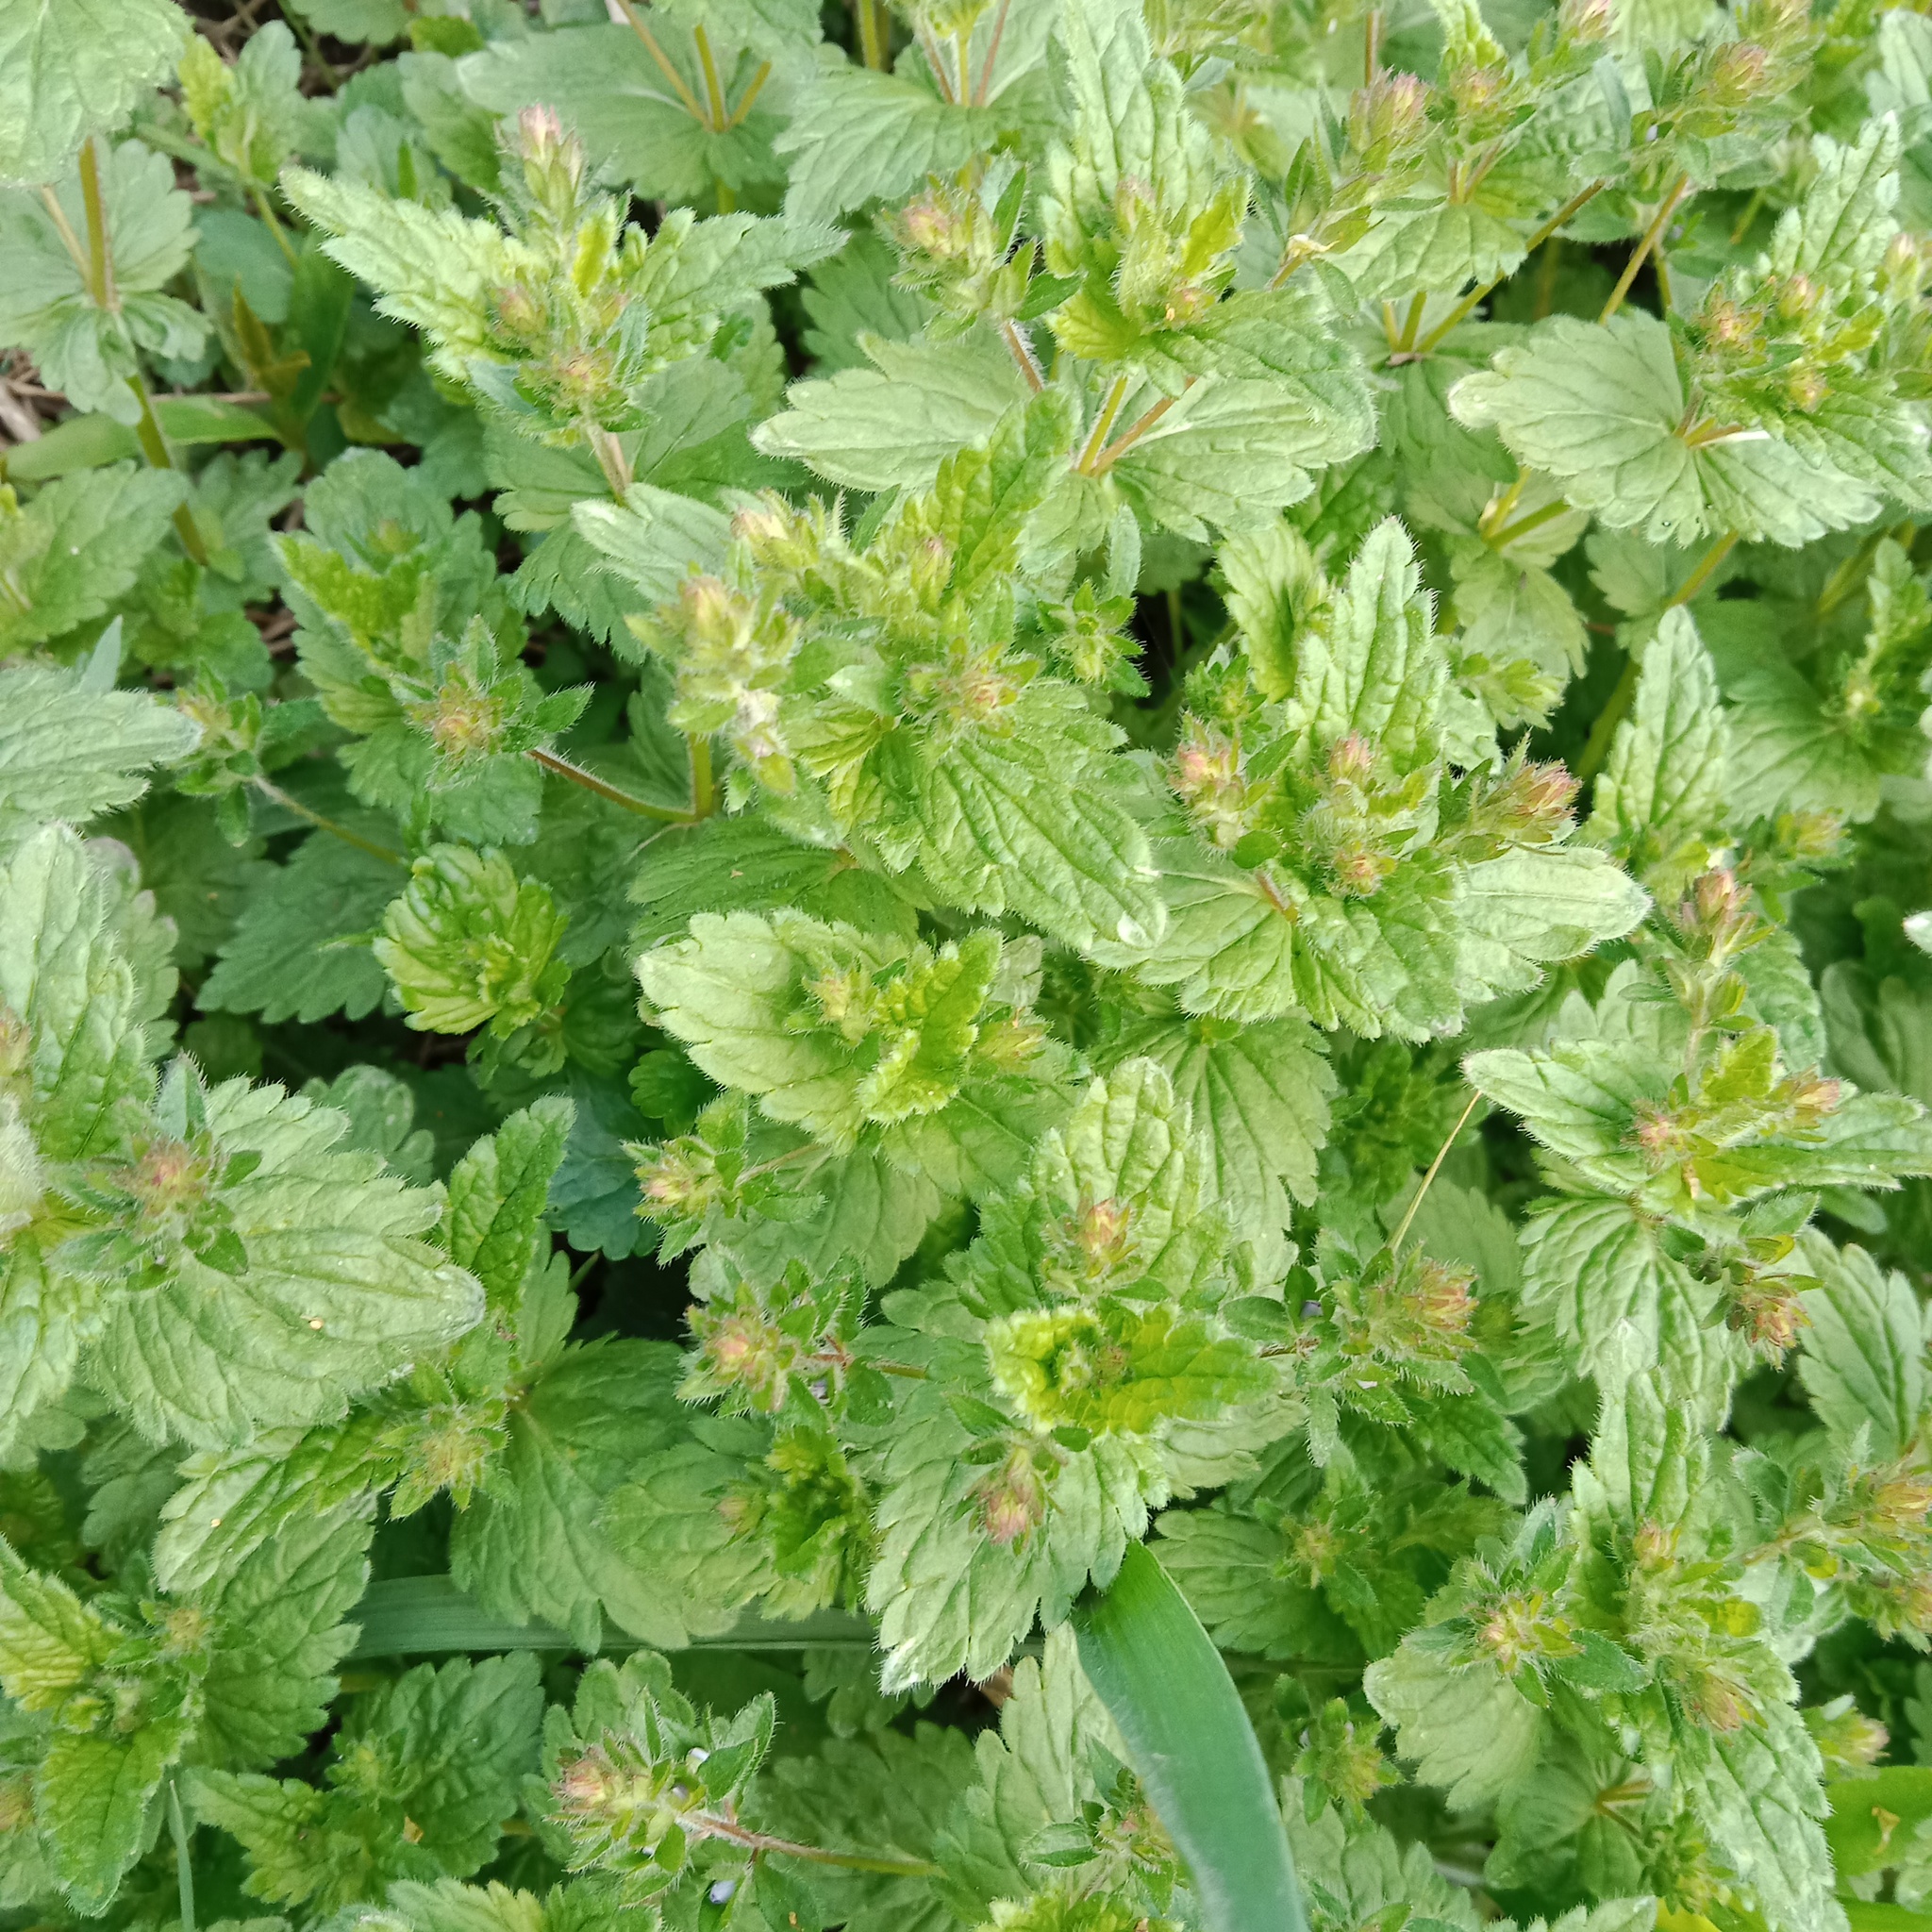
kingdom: Plantae
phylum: Tracheophyta
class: Magnoliopsida
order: Lamiales
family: Plantaginaceae
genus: Veronica
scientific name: Veronica chamaedrys
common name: Germander speedwell
